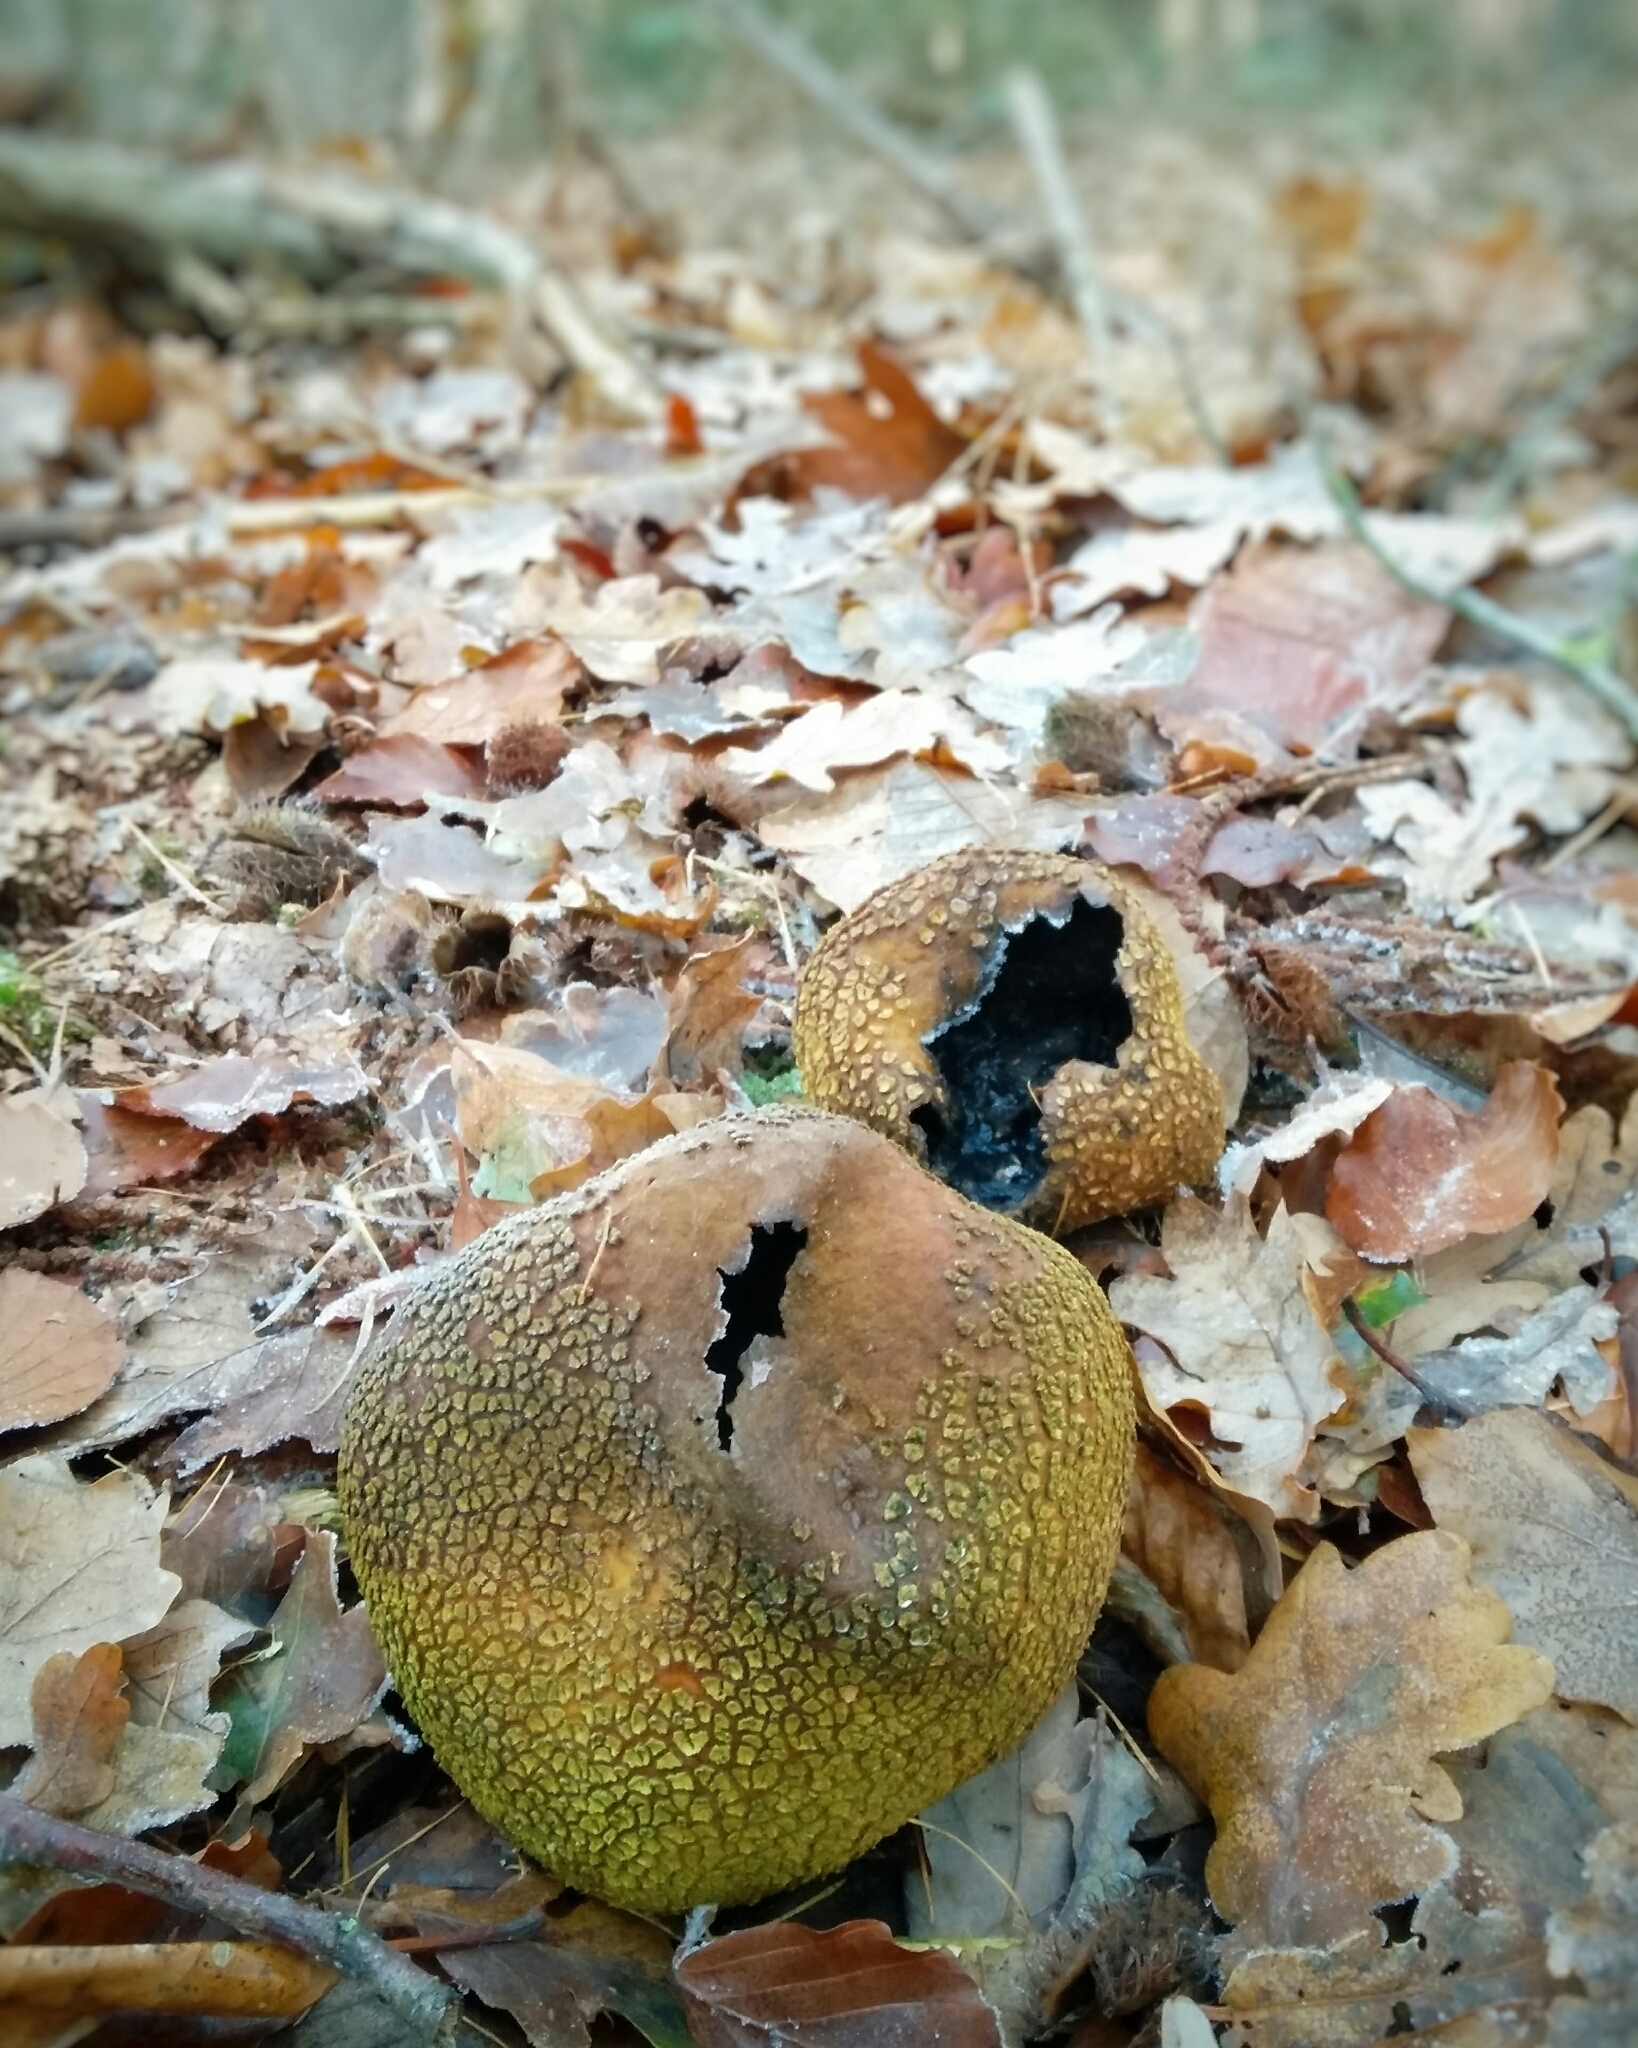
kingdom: Fungi
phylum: Basidiomycota
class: Agaricomycetes
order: Boletales
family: Sclerodermataceae
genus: Scleroderma
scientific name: Scleroderma citrinum
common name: Common earthball
